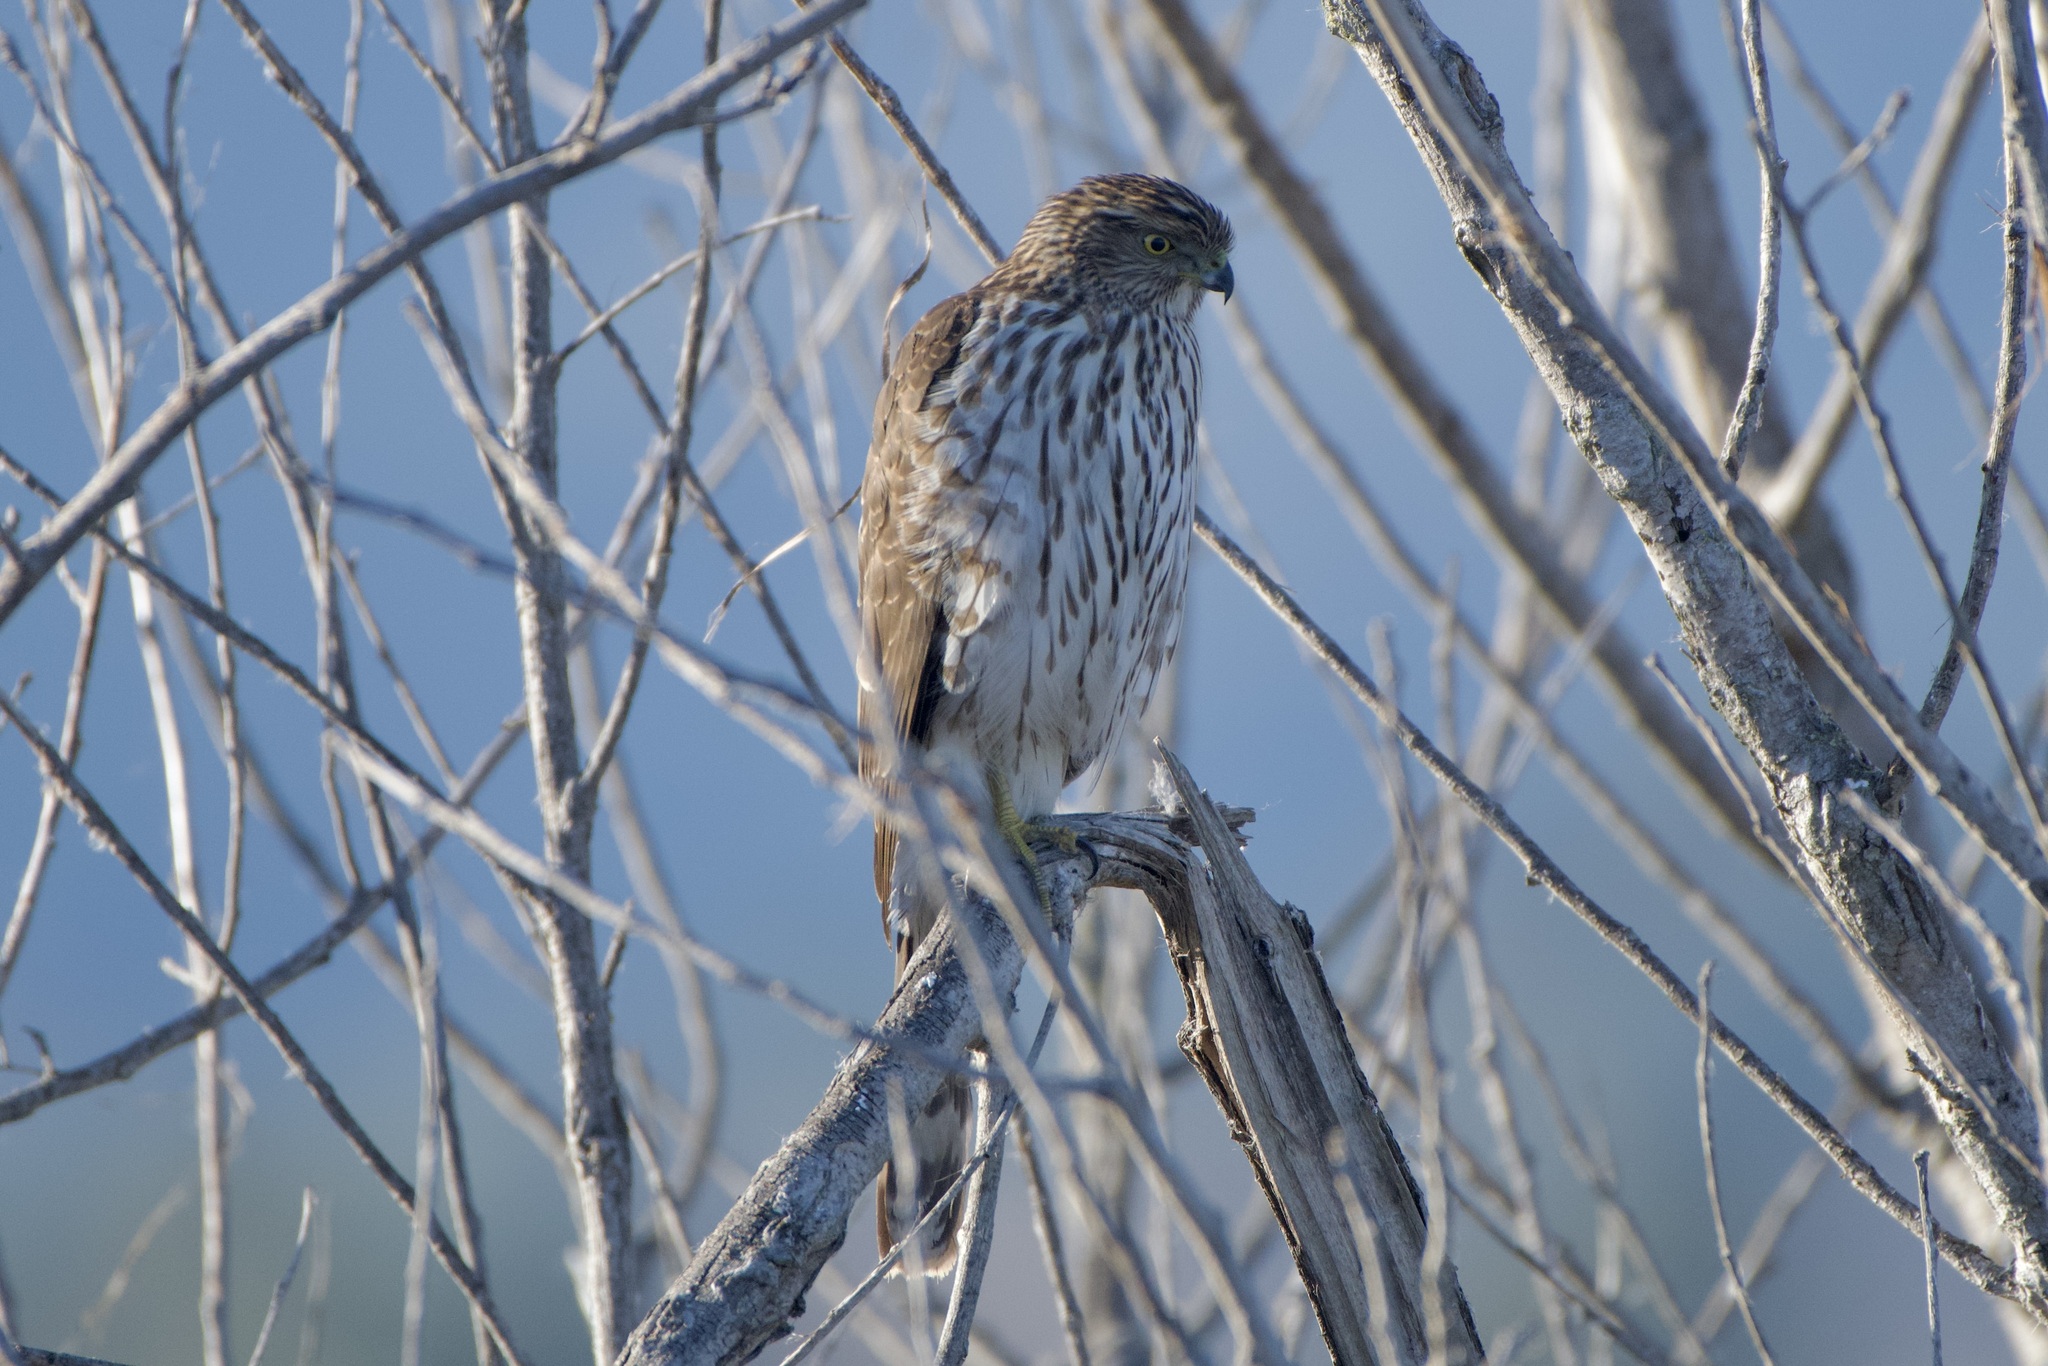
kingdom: Animalia
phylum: Chordata
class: Aves
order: Accipitriformes
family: Accipitridae
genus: Accipiter
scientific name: Accipiter cooperii
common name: Cooper's hawk
